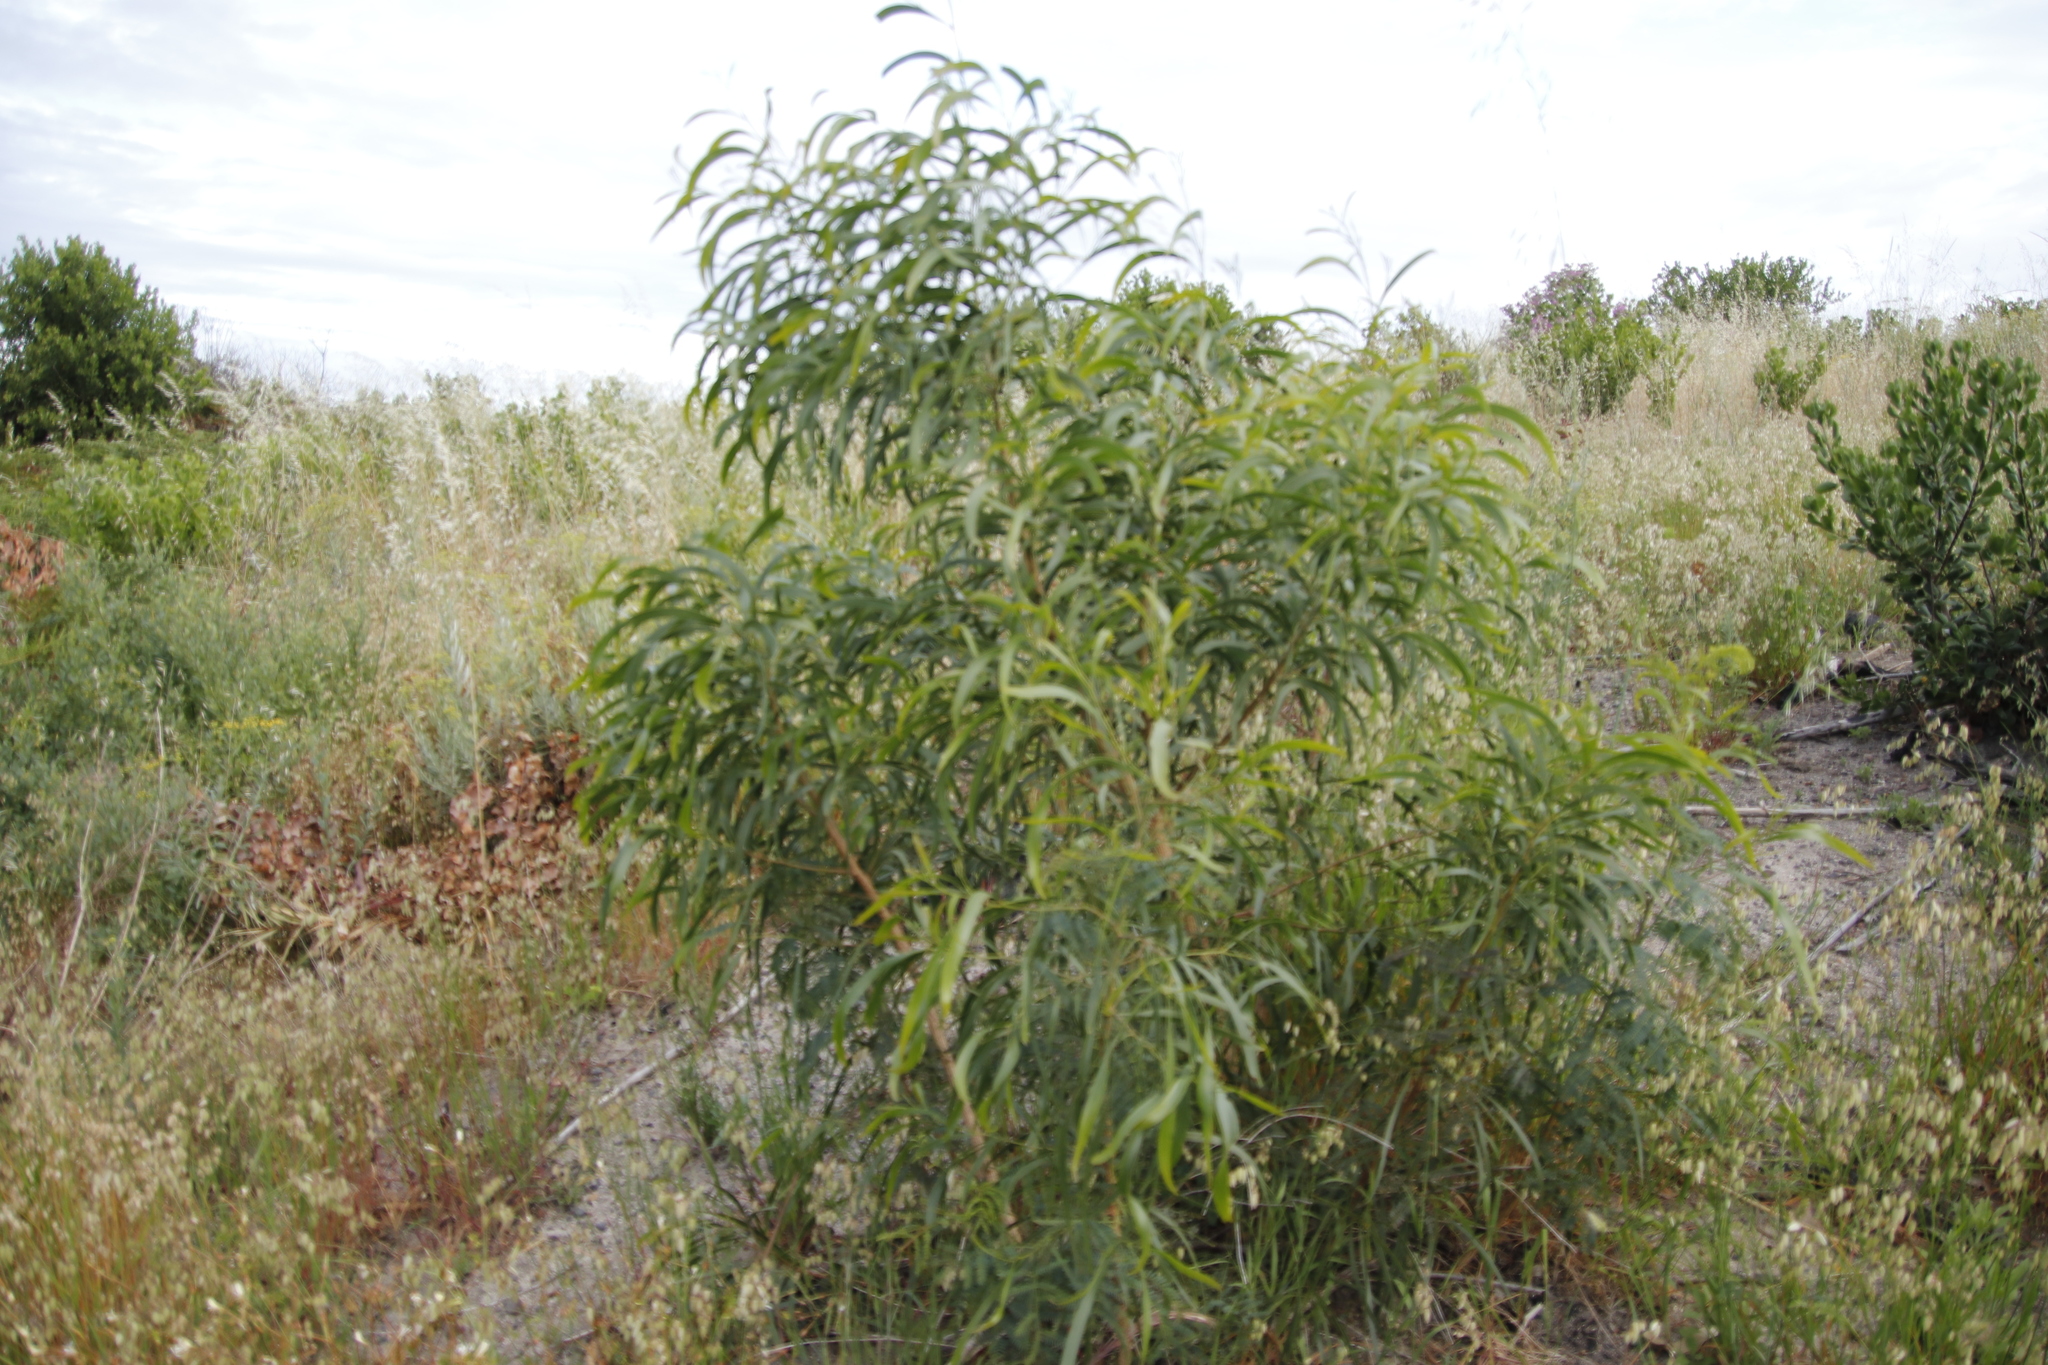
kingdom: Plantae
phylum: Tracheophyta
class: Magnoliopsida
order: Fabales
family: Fabaceae
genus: Acacia
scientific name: Acacia saligna
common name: Orange wattle
